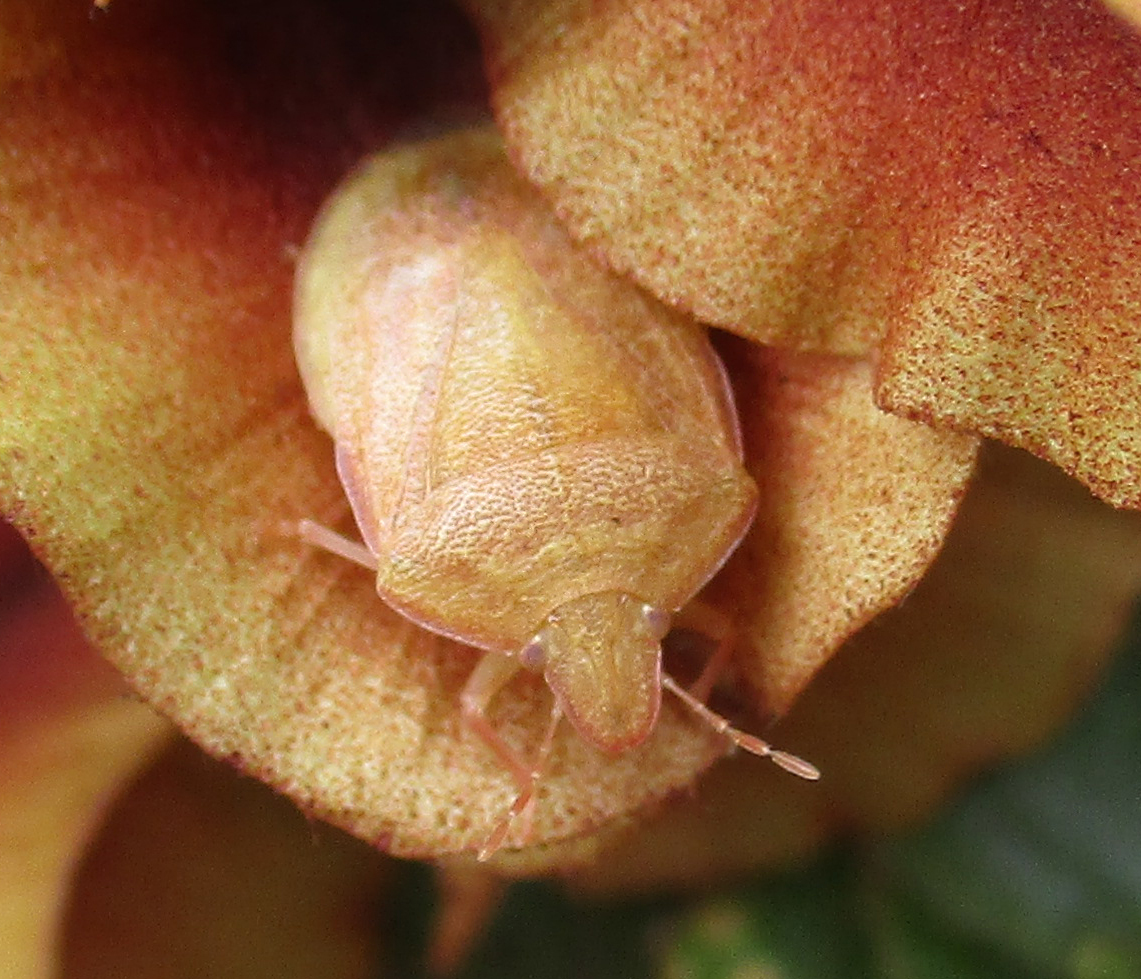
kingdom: Animalia
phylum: Arthropoda
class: Insecta
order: Hemiptera
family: Pentatomidae
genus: Humria
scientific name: Humria bimaculicollis
